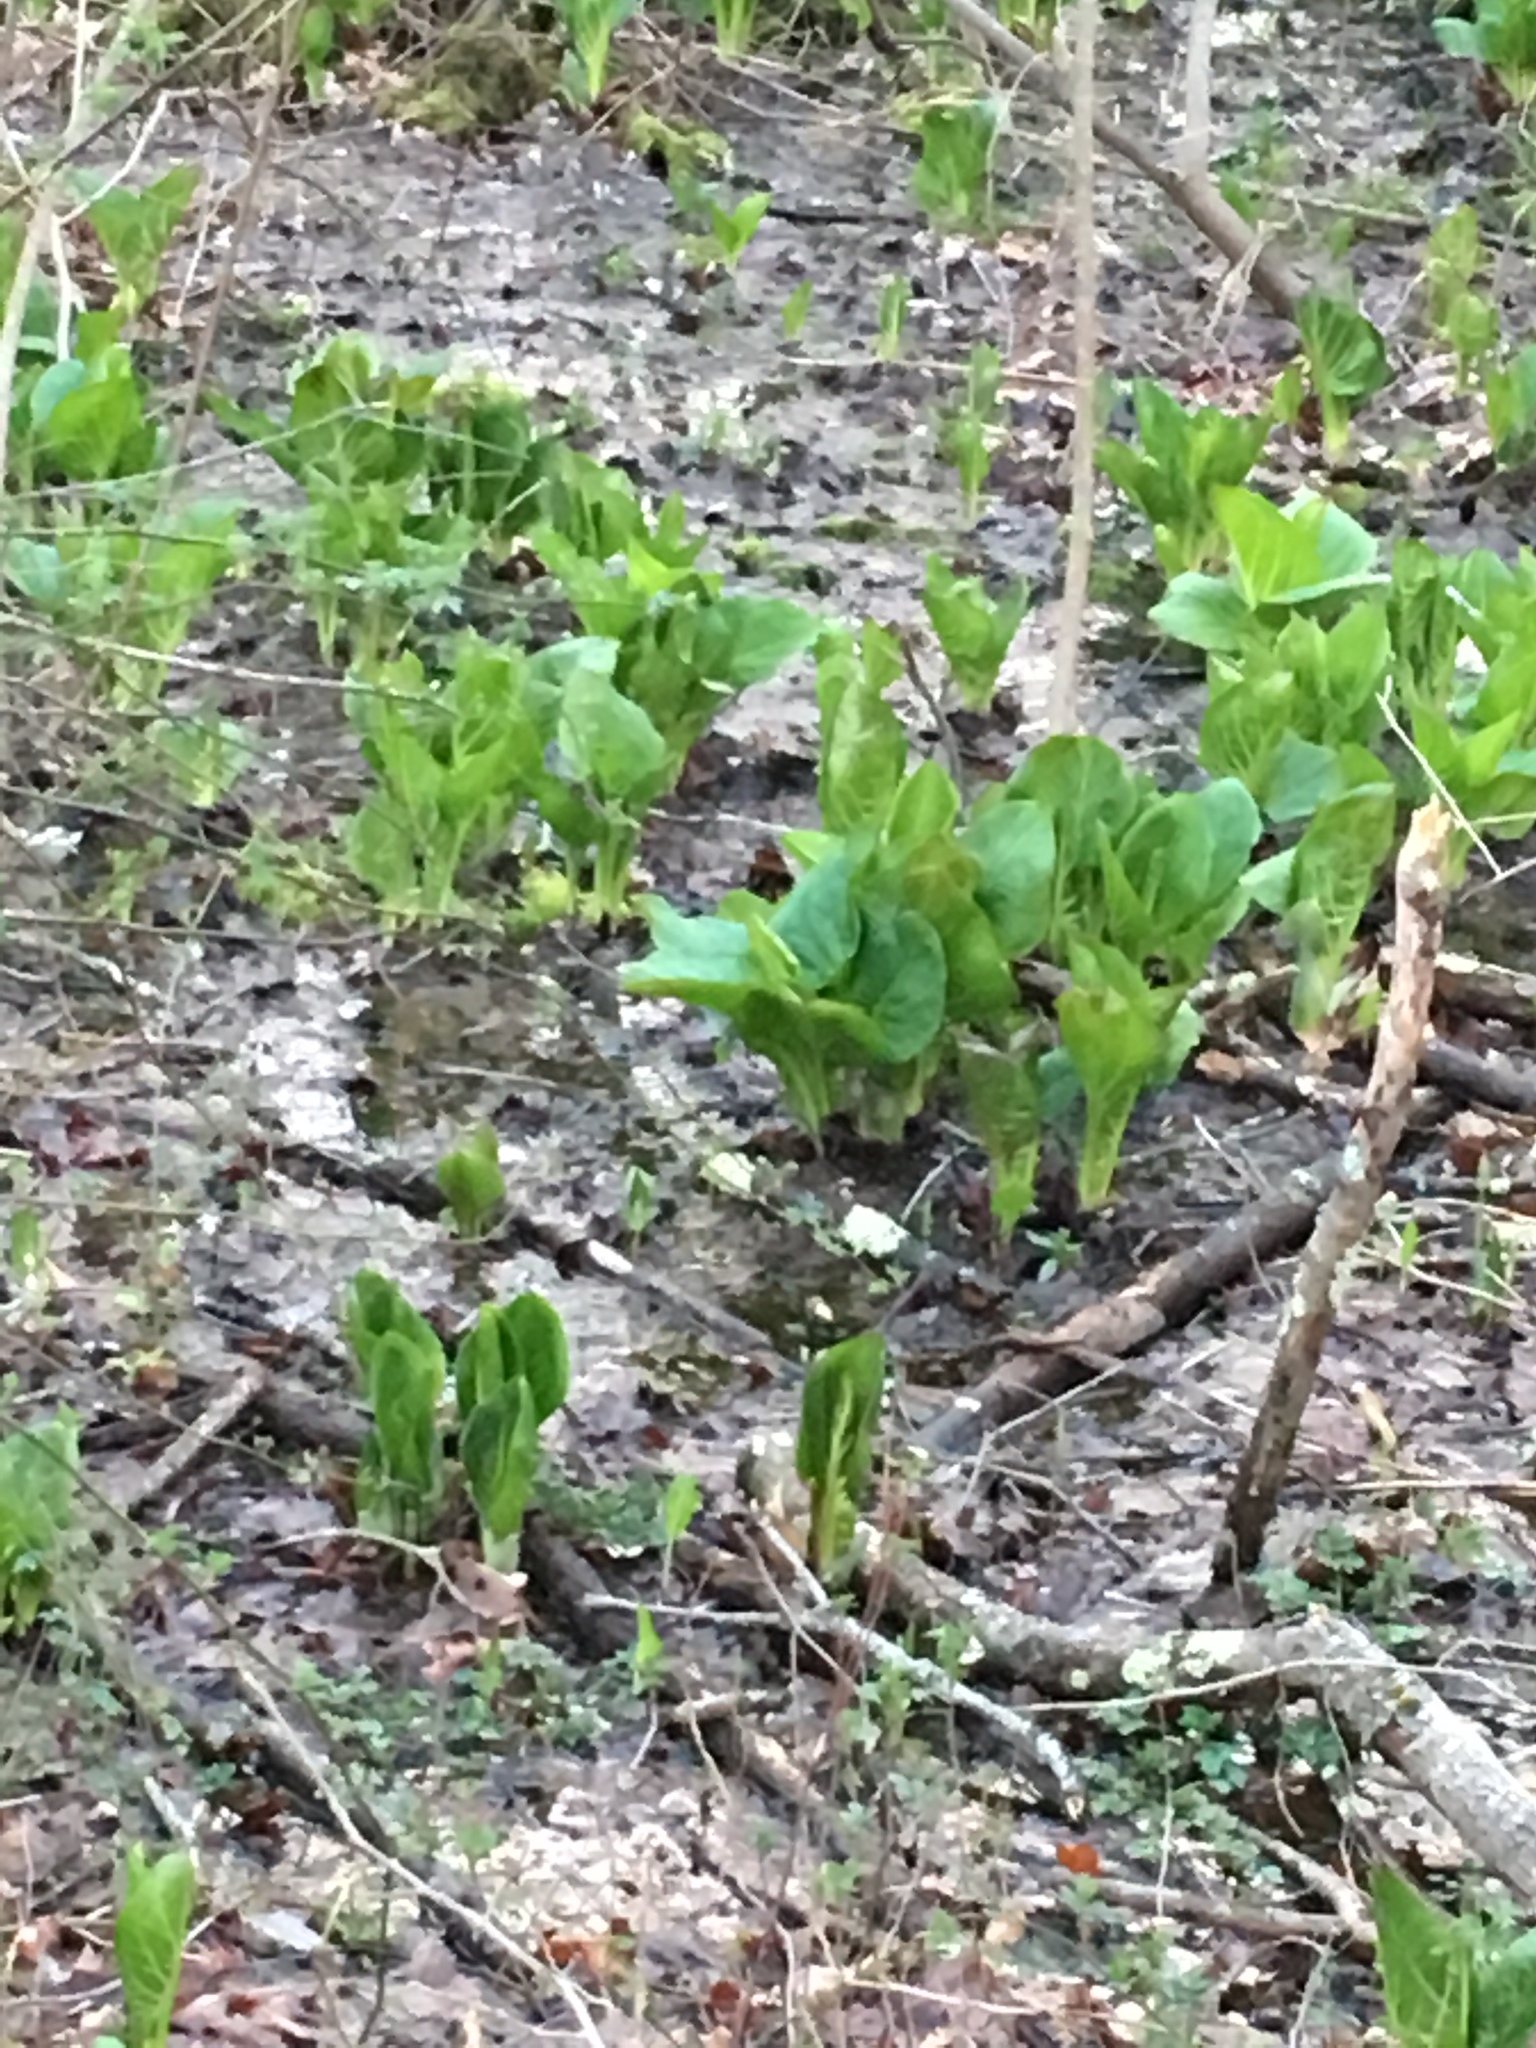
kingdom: Plantae
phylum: Tracheophyta
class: Liliopsida
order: Alismatales
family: Araceae
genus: Symplocarpus
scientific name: Symplocarpus foetidus
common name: Eastern skunk cabbage
